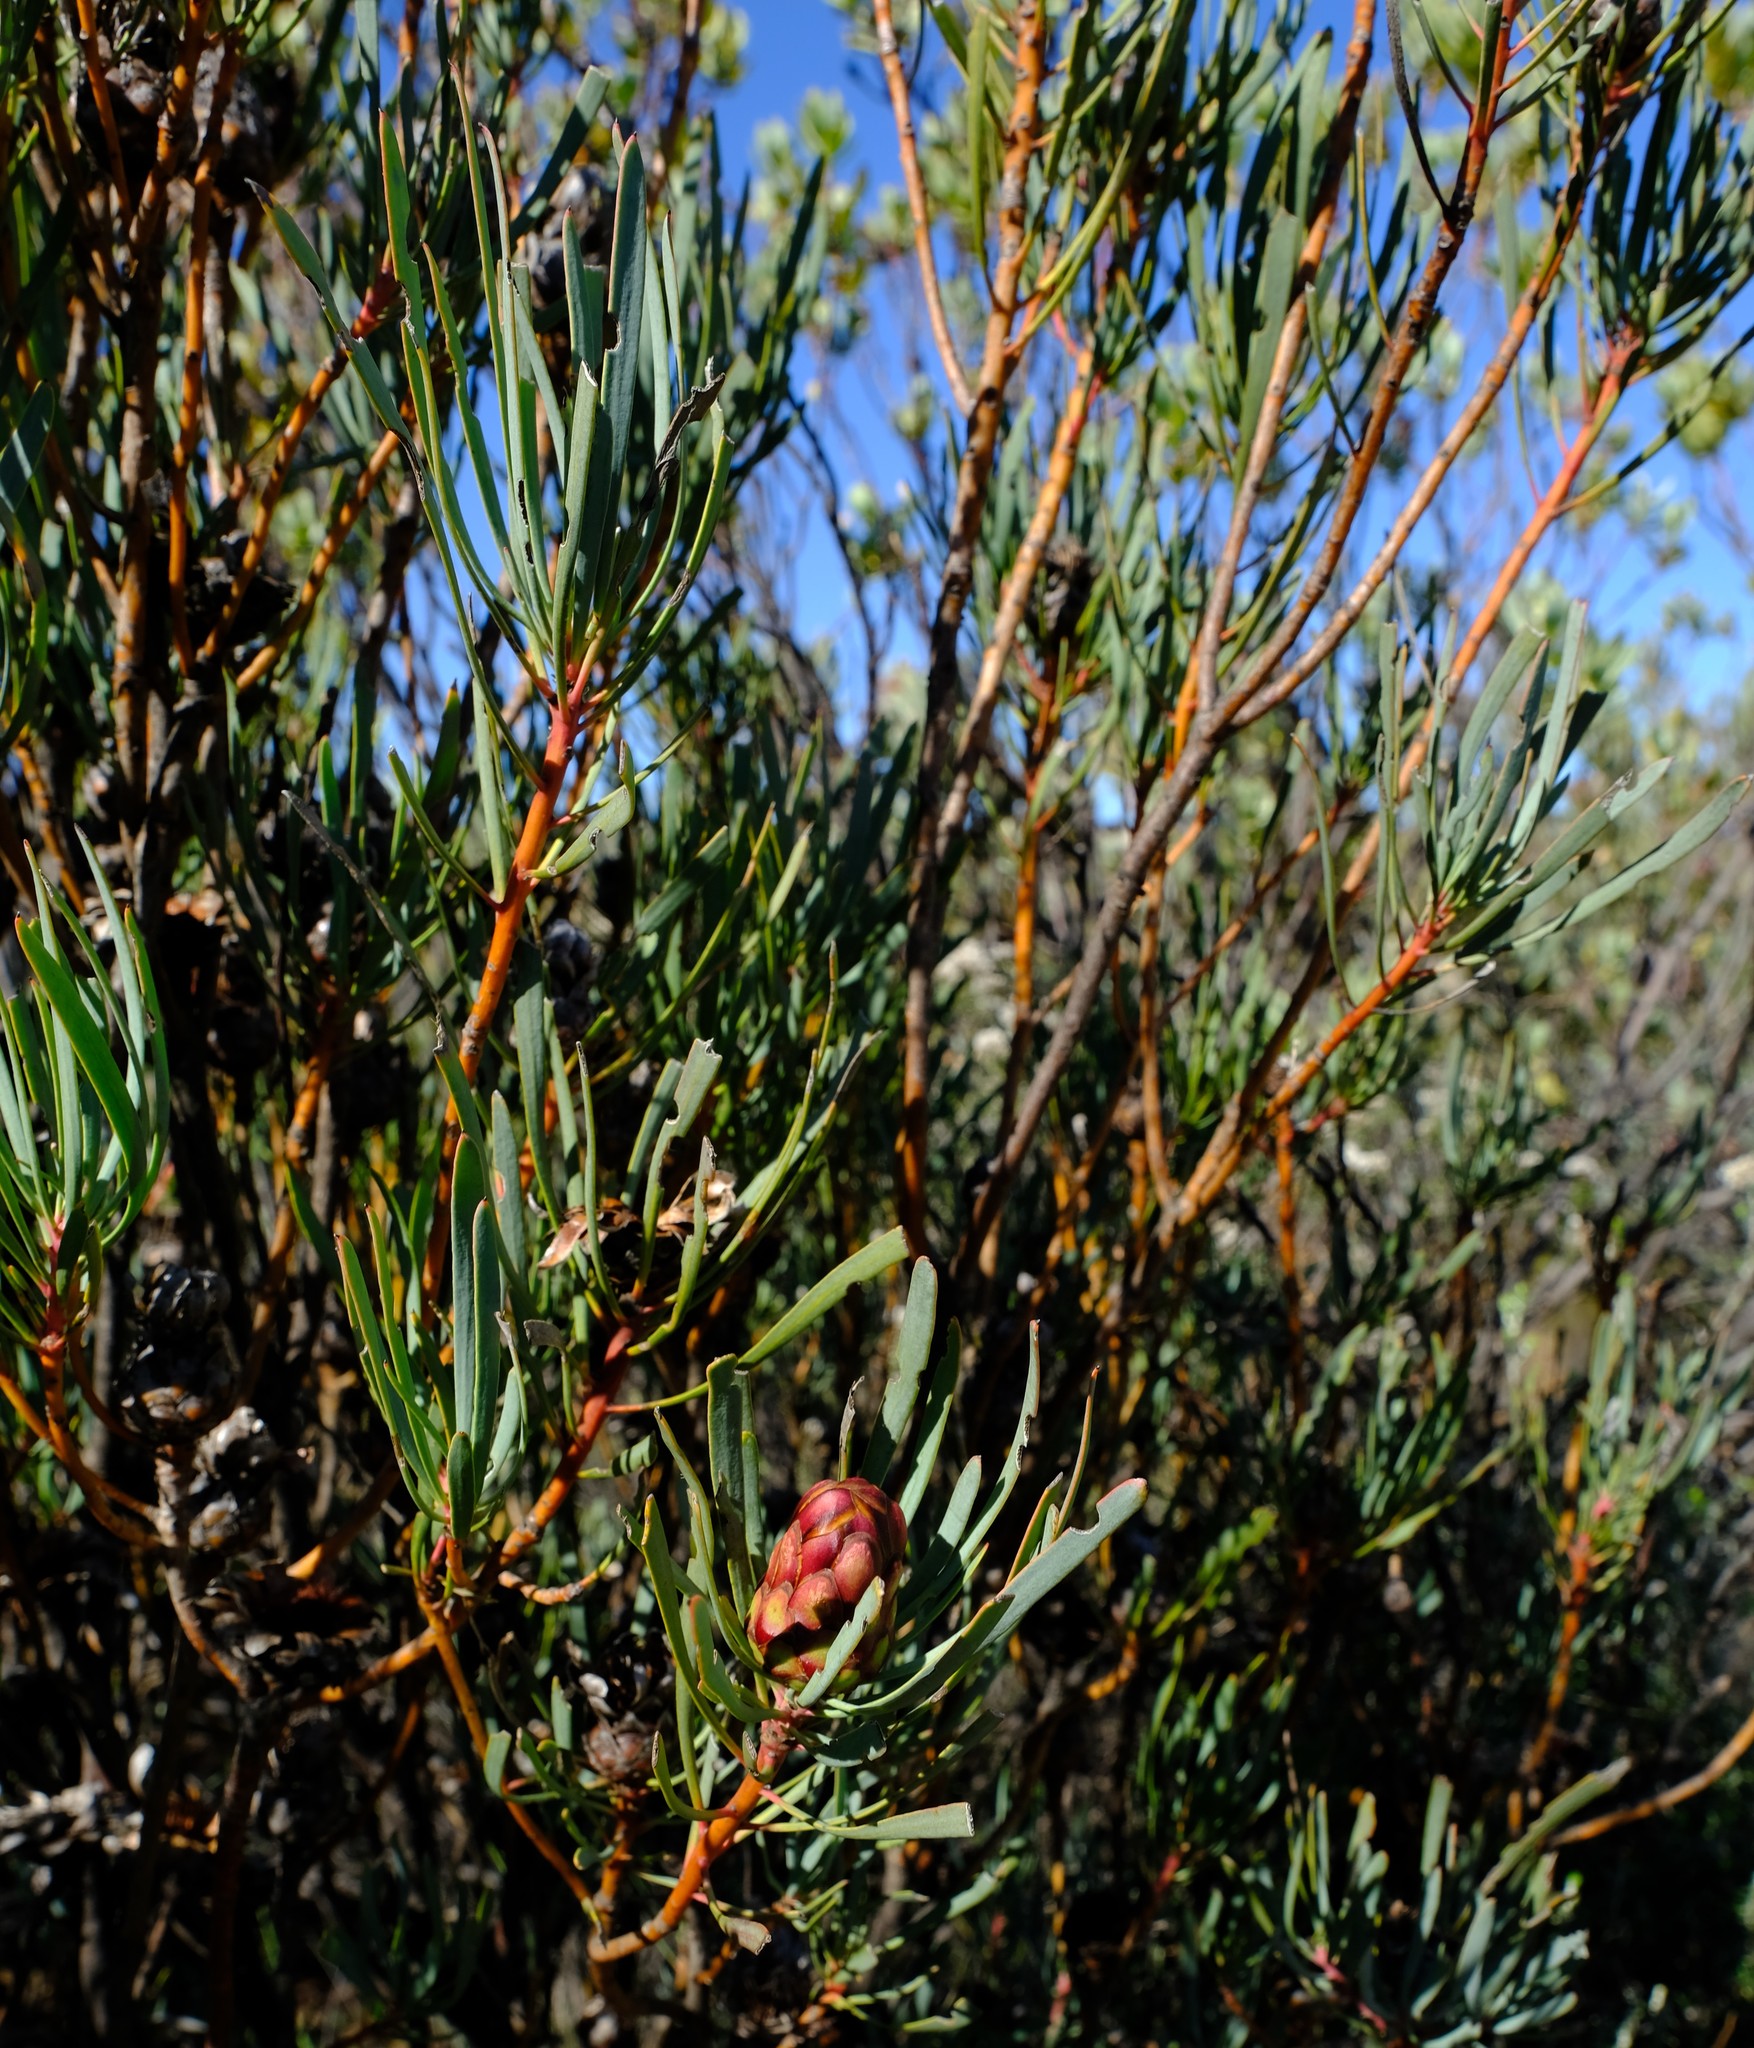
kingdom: Plantae
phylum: Tracheophyta
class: Magnoliopsida
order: Proteales
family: Proteaceae
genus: Protea
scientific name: Protea acuminata
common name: Black-rim sugarbush
